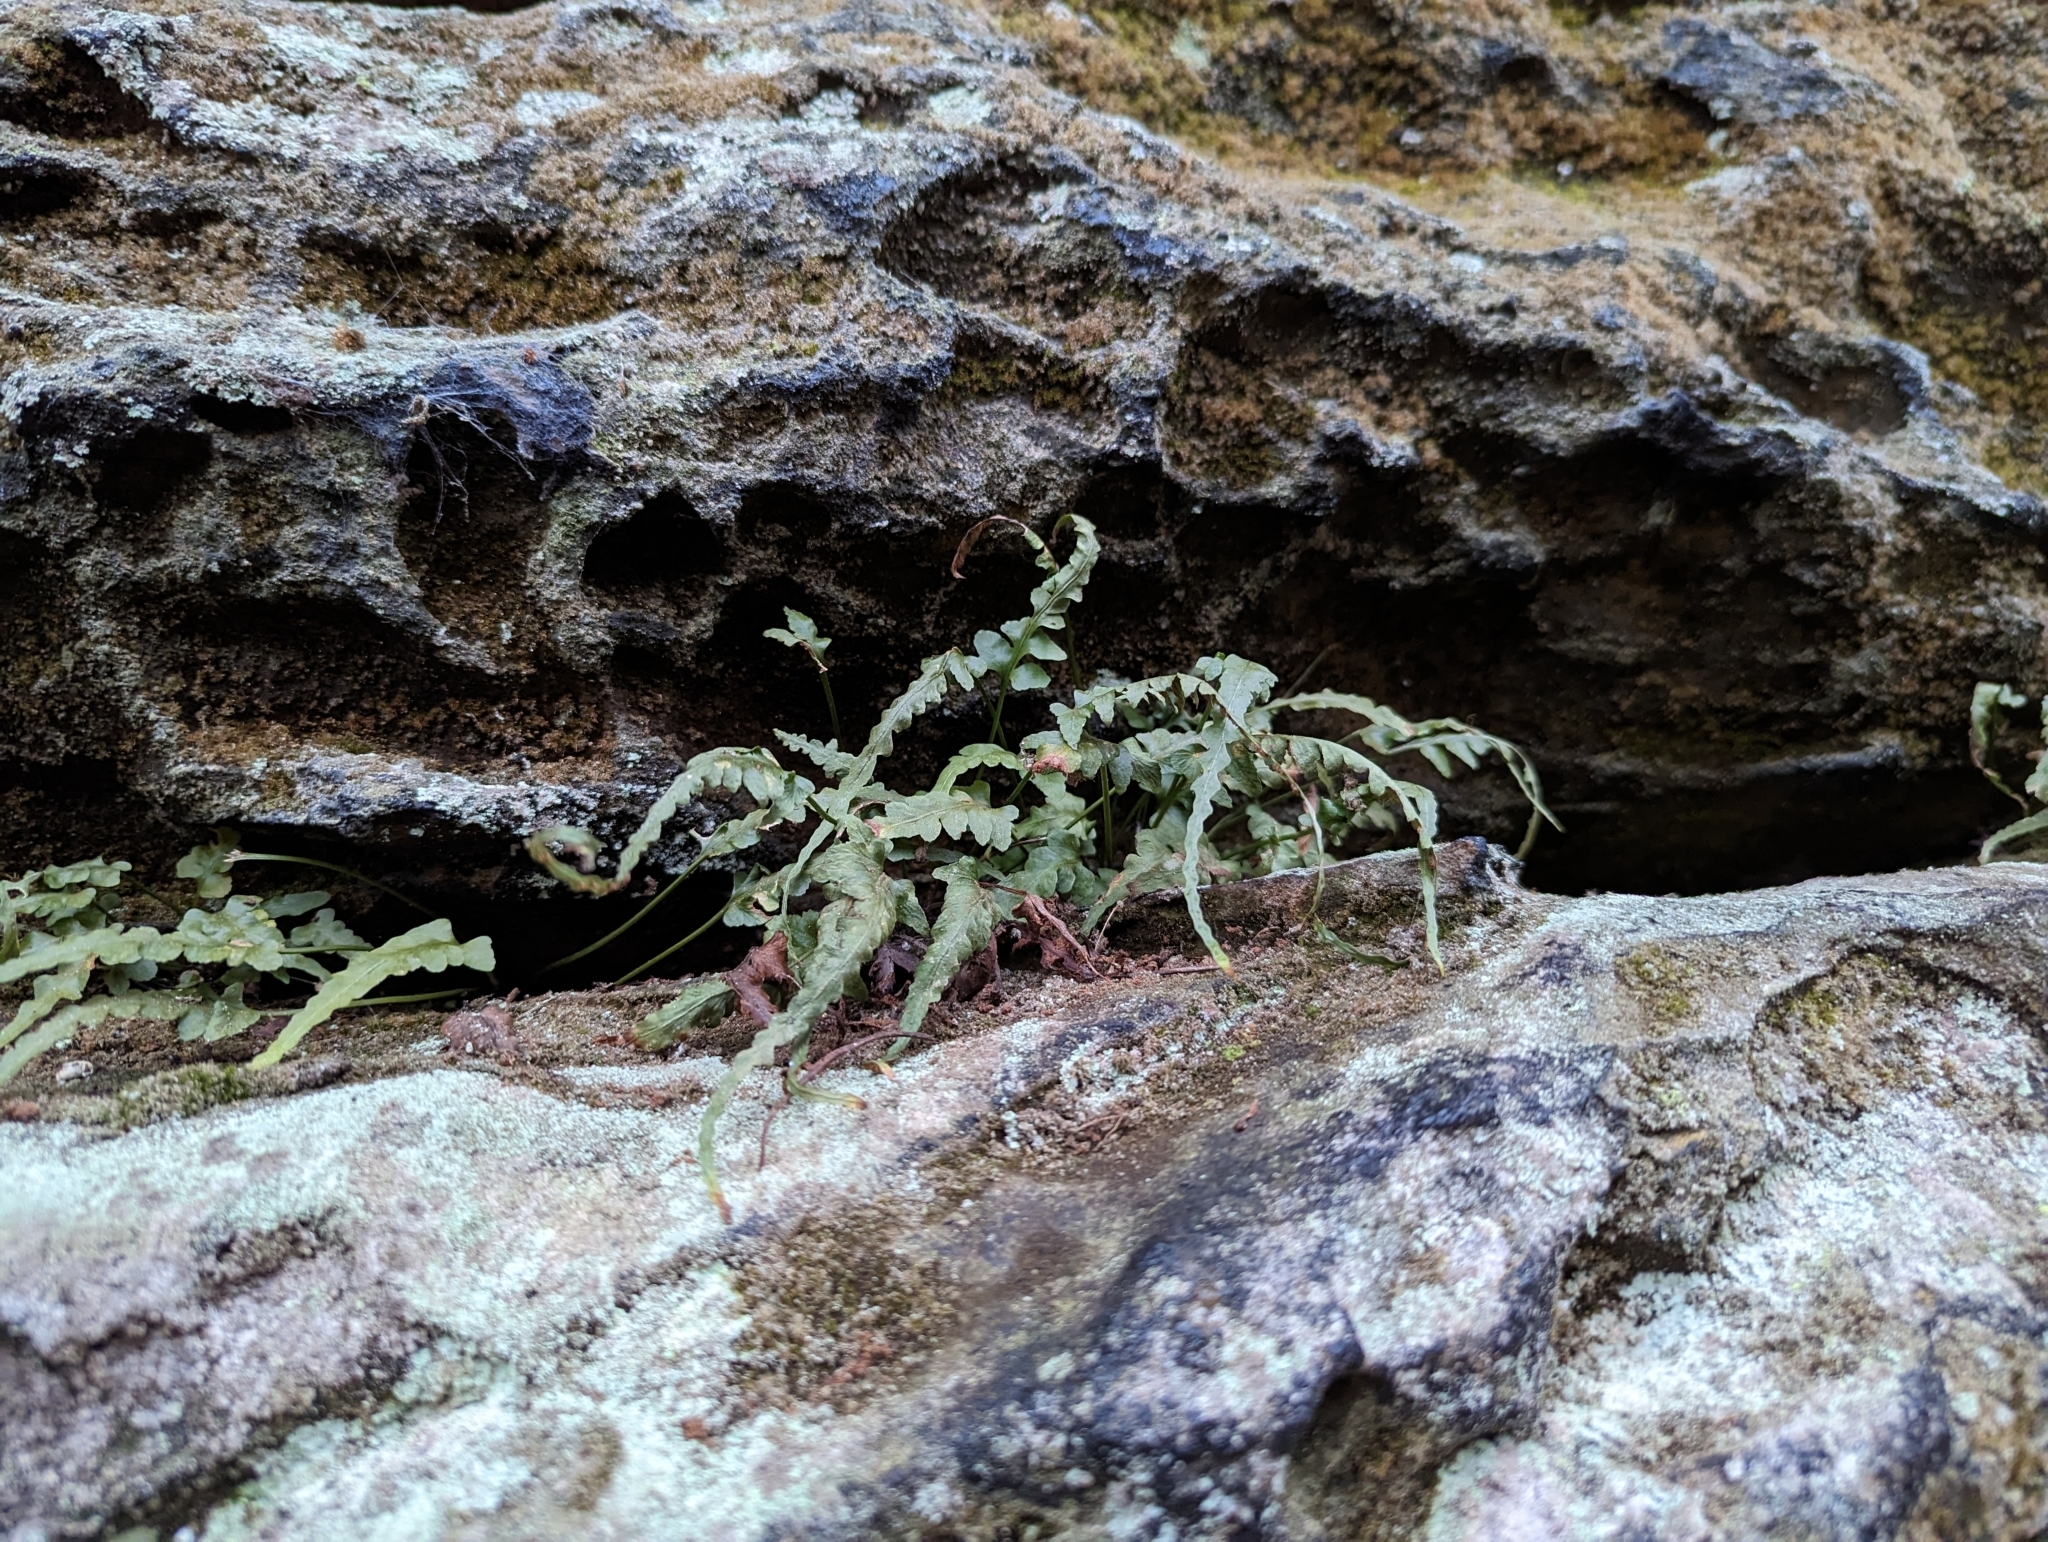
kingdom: Plantae
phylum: Tracheophyta
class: Polypodiopsida
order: Polypodiales
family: Aspleniaceae
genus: Asplenium
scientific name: Asplenium pinnatifidum
